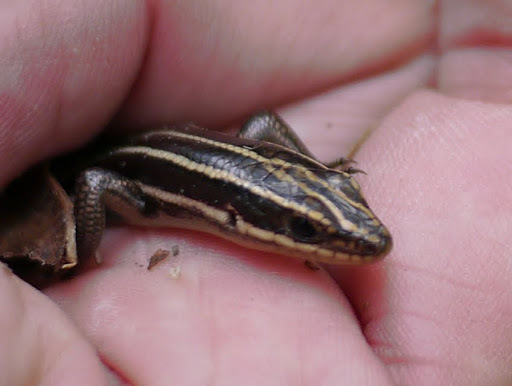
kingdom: Animalia
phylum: Chordata
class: Squamata
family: Scincidae
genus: Plestiodon
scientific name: Plestiodon fasciatus
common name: Five-lined skink
